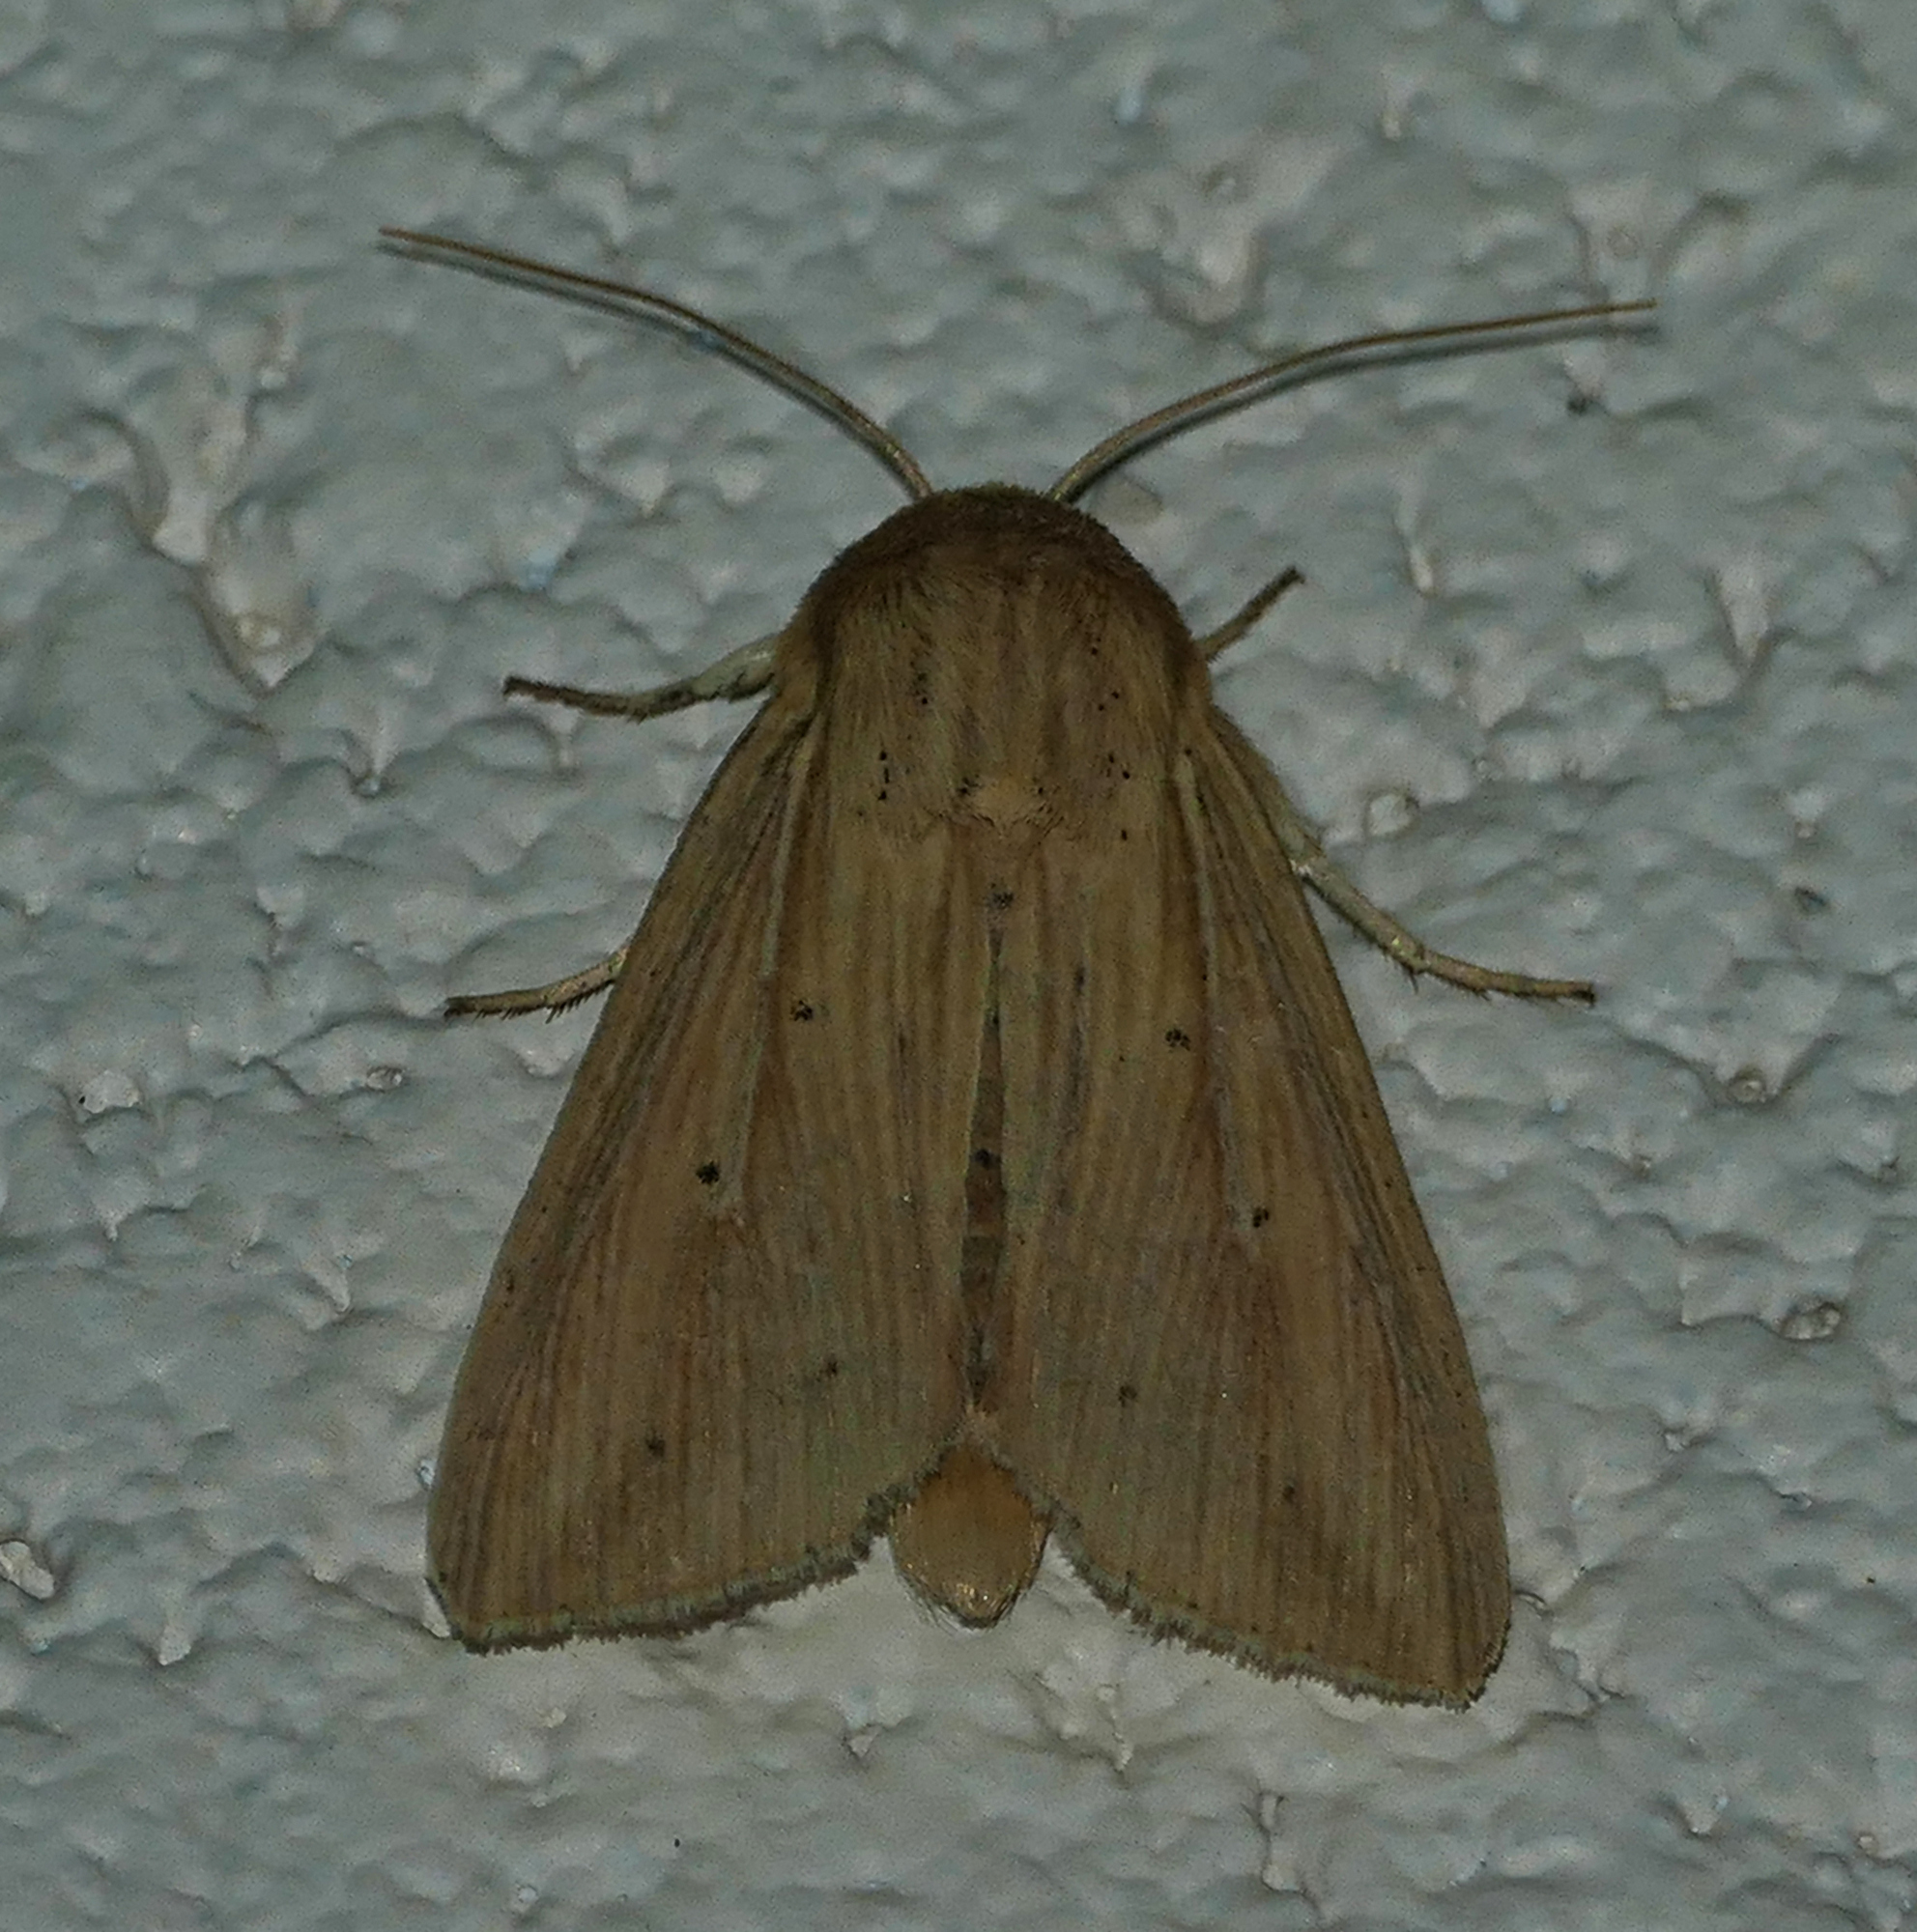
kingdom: Animalia
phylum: Arthropoda
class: Insecta
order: Lepidoptera
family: Noctuidae
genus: Leucania
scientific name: Leucania adjuta
